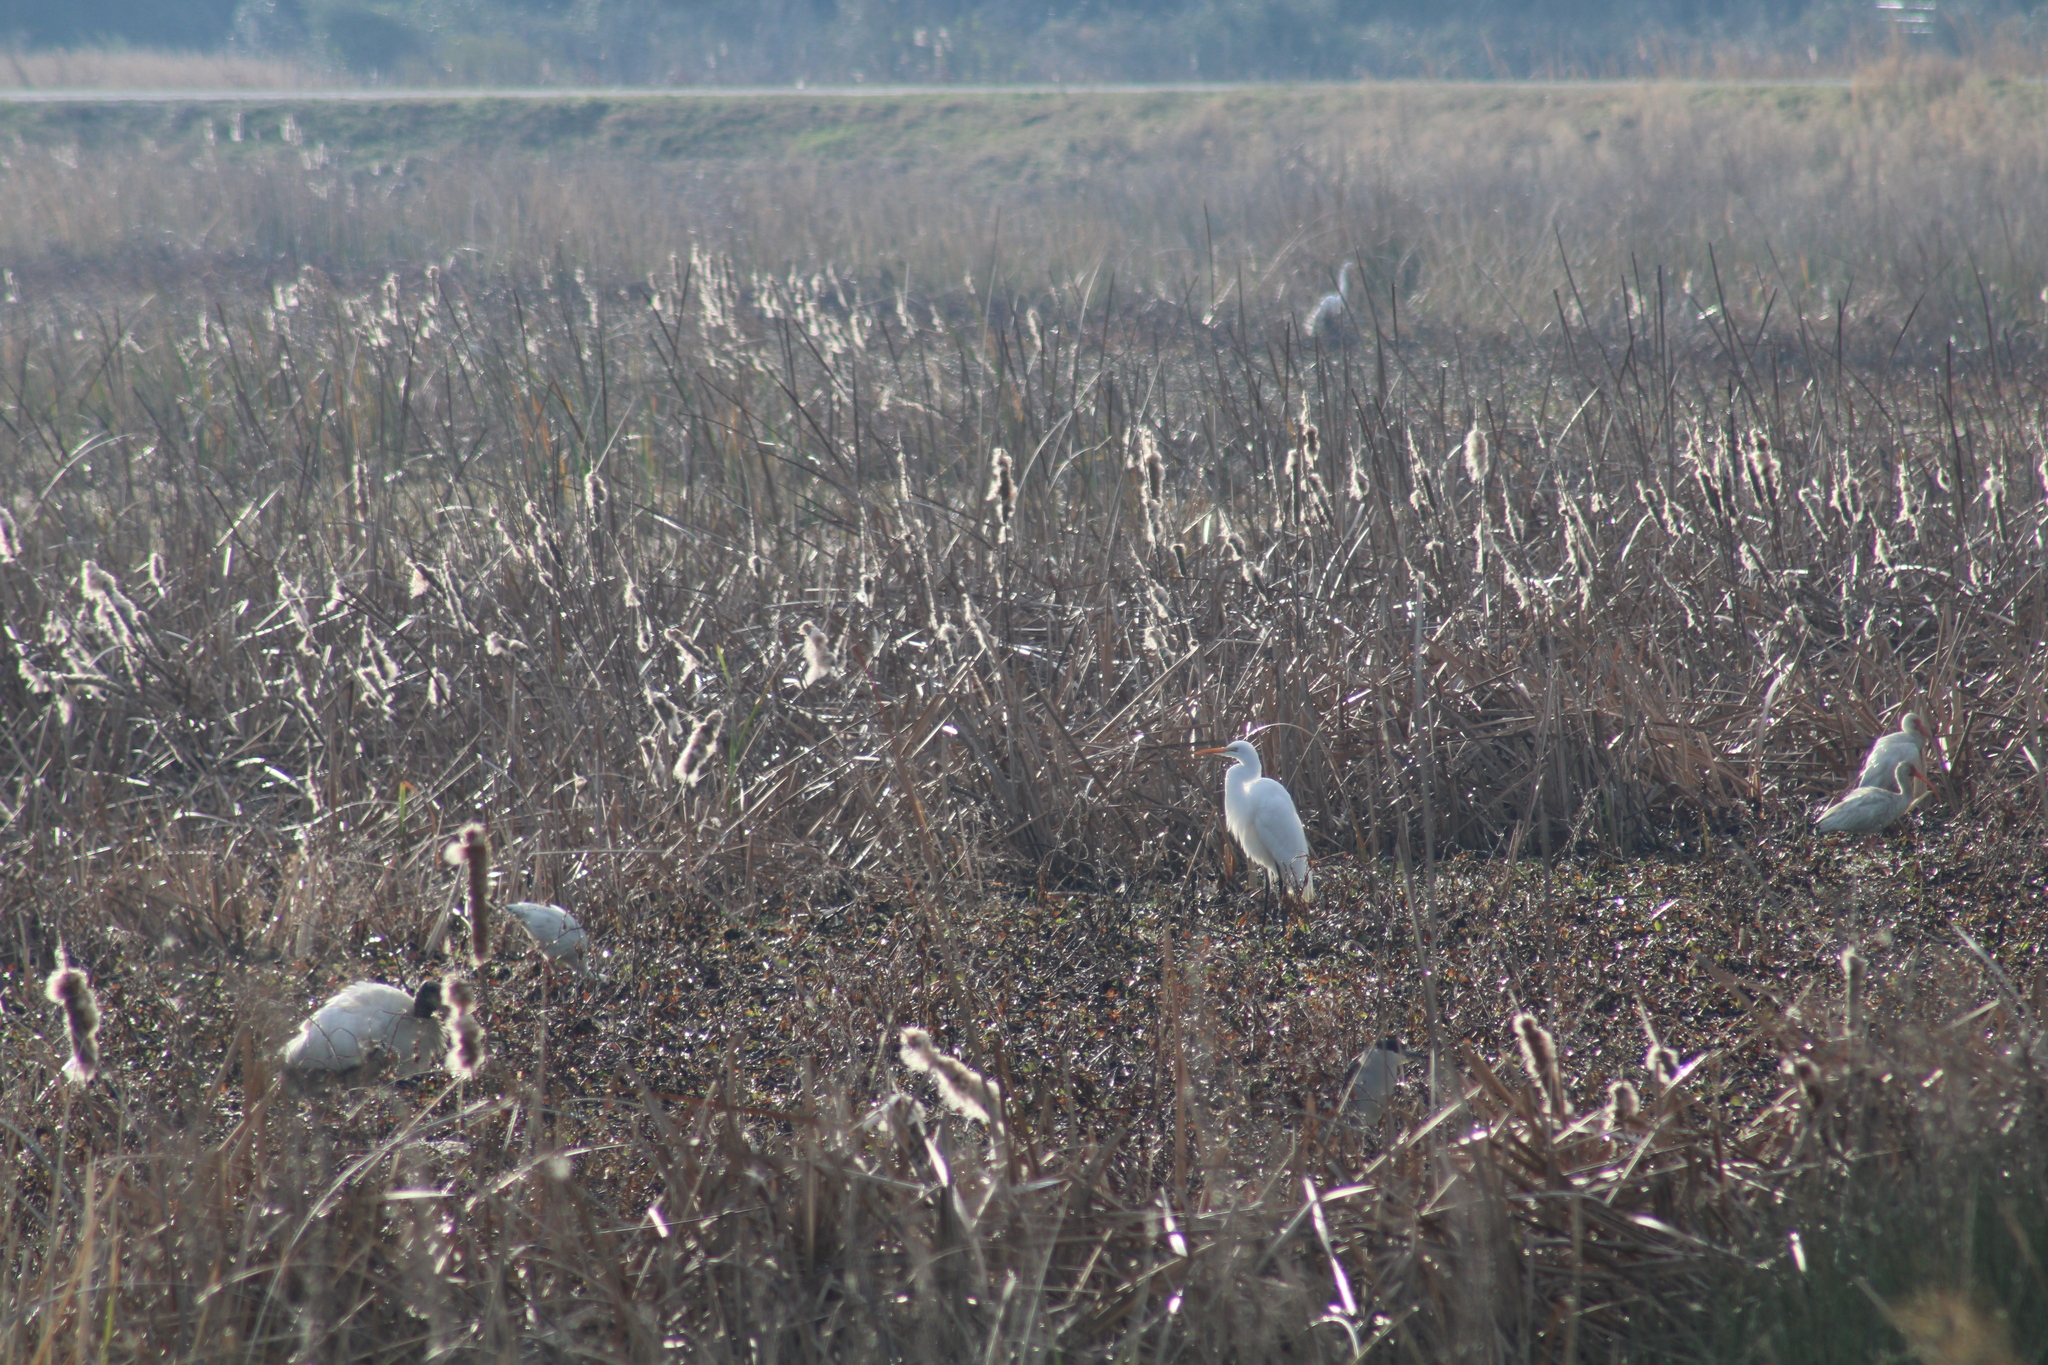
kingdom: Animalia
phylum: Chordata
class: Aves
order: Pelecaniformes
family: Threskiornithidae
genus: Eudocimus
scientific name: Eudocimus albus
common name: White ibis
